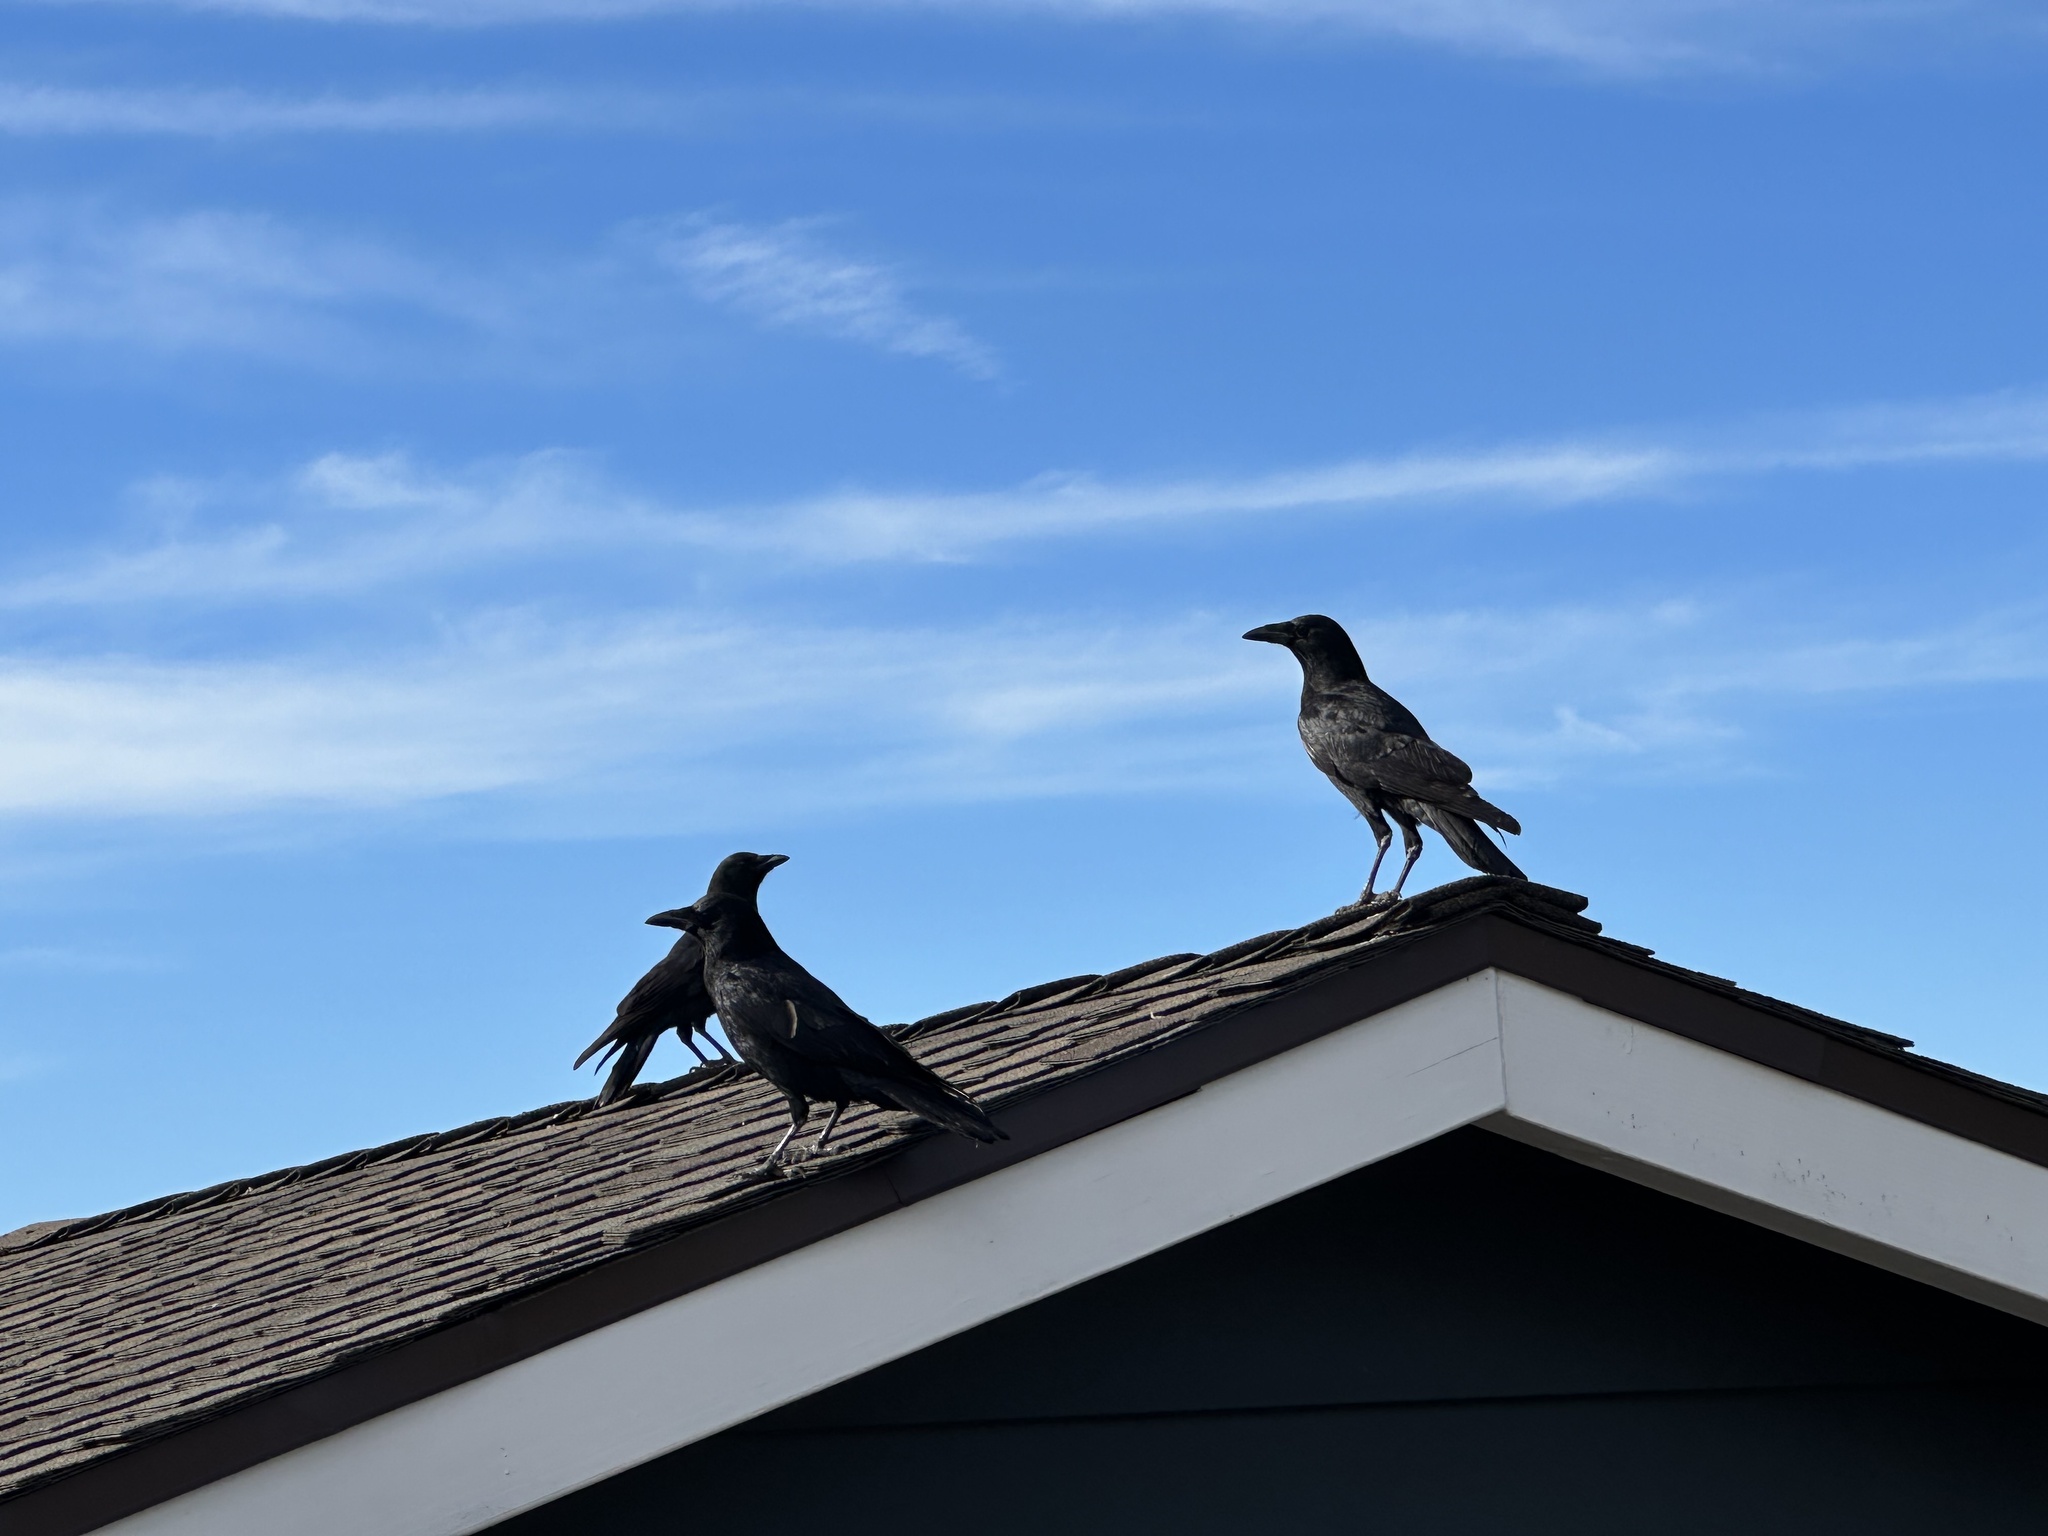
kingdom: Animalia
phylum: Chordata
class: Aves
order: Passeriformes
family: Corvidae
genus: Corvus
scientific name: Corvus brachyrhynchos
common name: American crow
